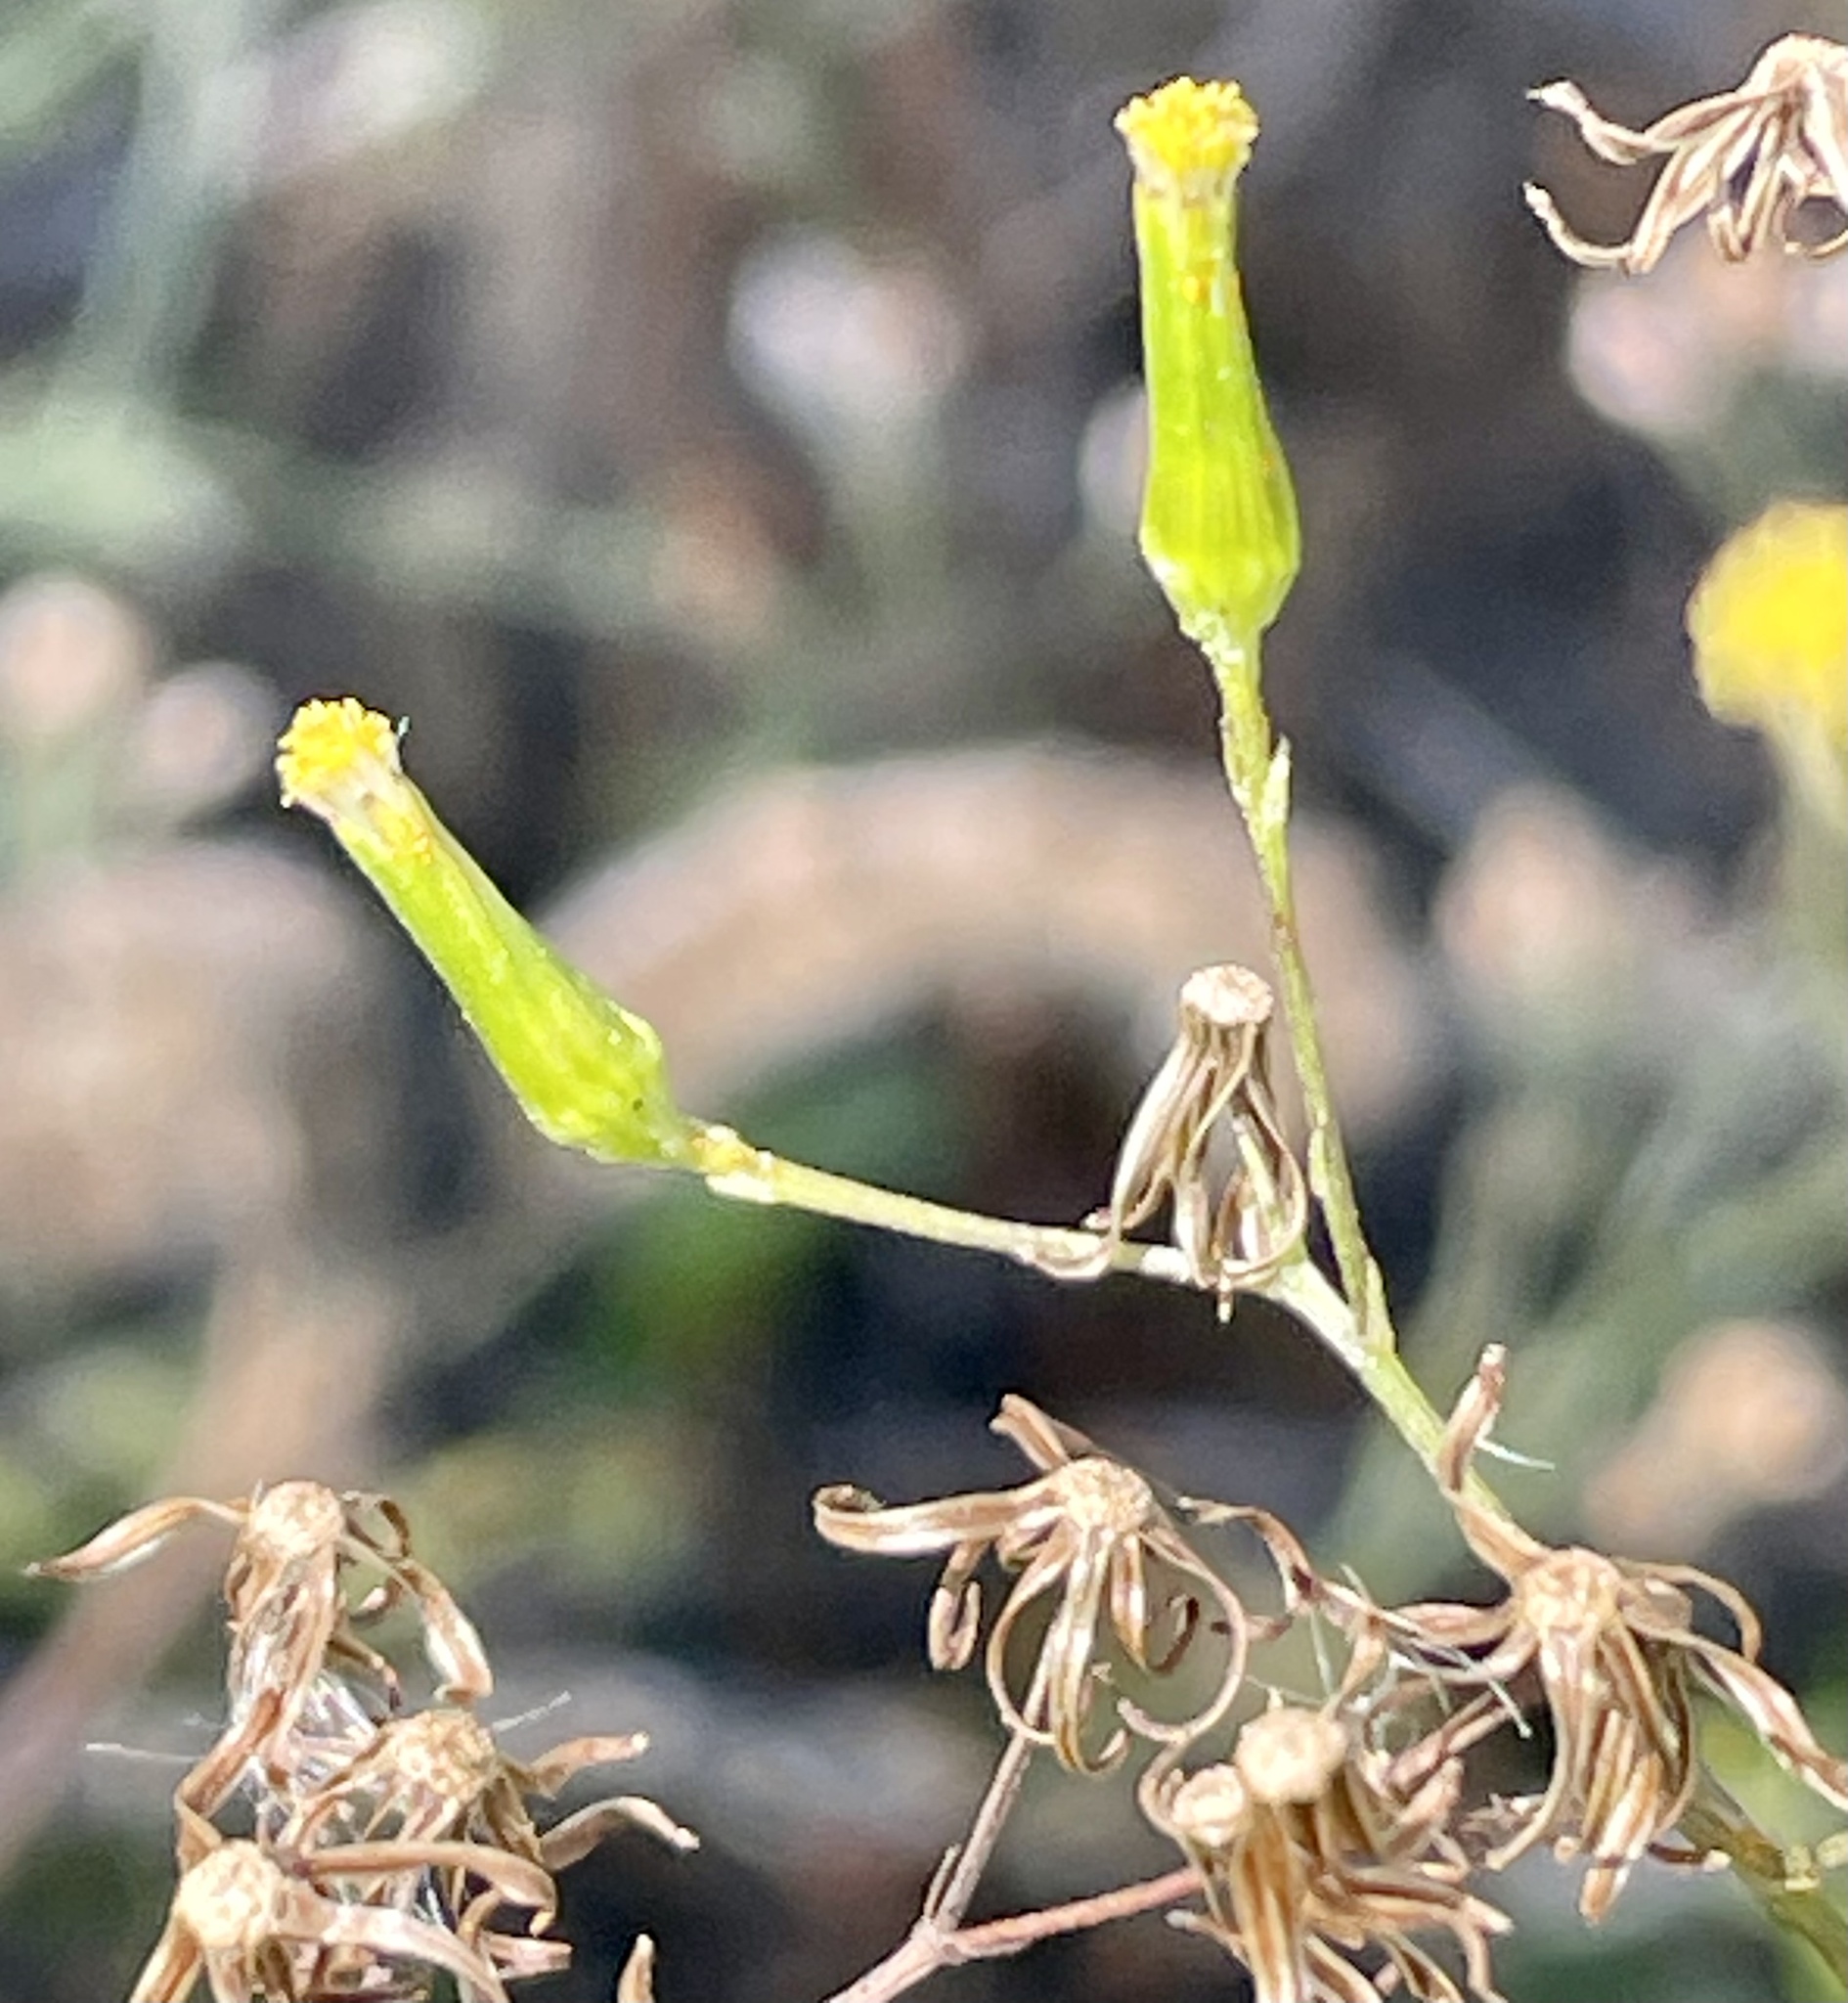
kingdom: Plantae
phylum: Tracheophyta
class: Magnoliopsida
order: Asterales
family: Asteraceae
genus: Senecio
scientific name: Senecio minimus
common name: Toothed fireweed
